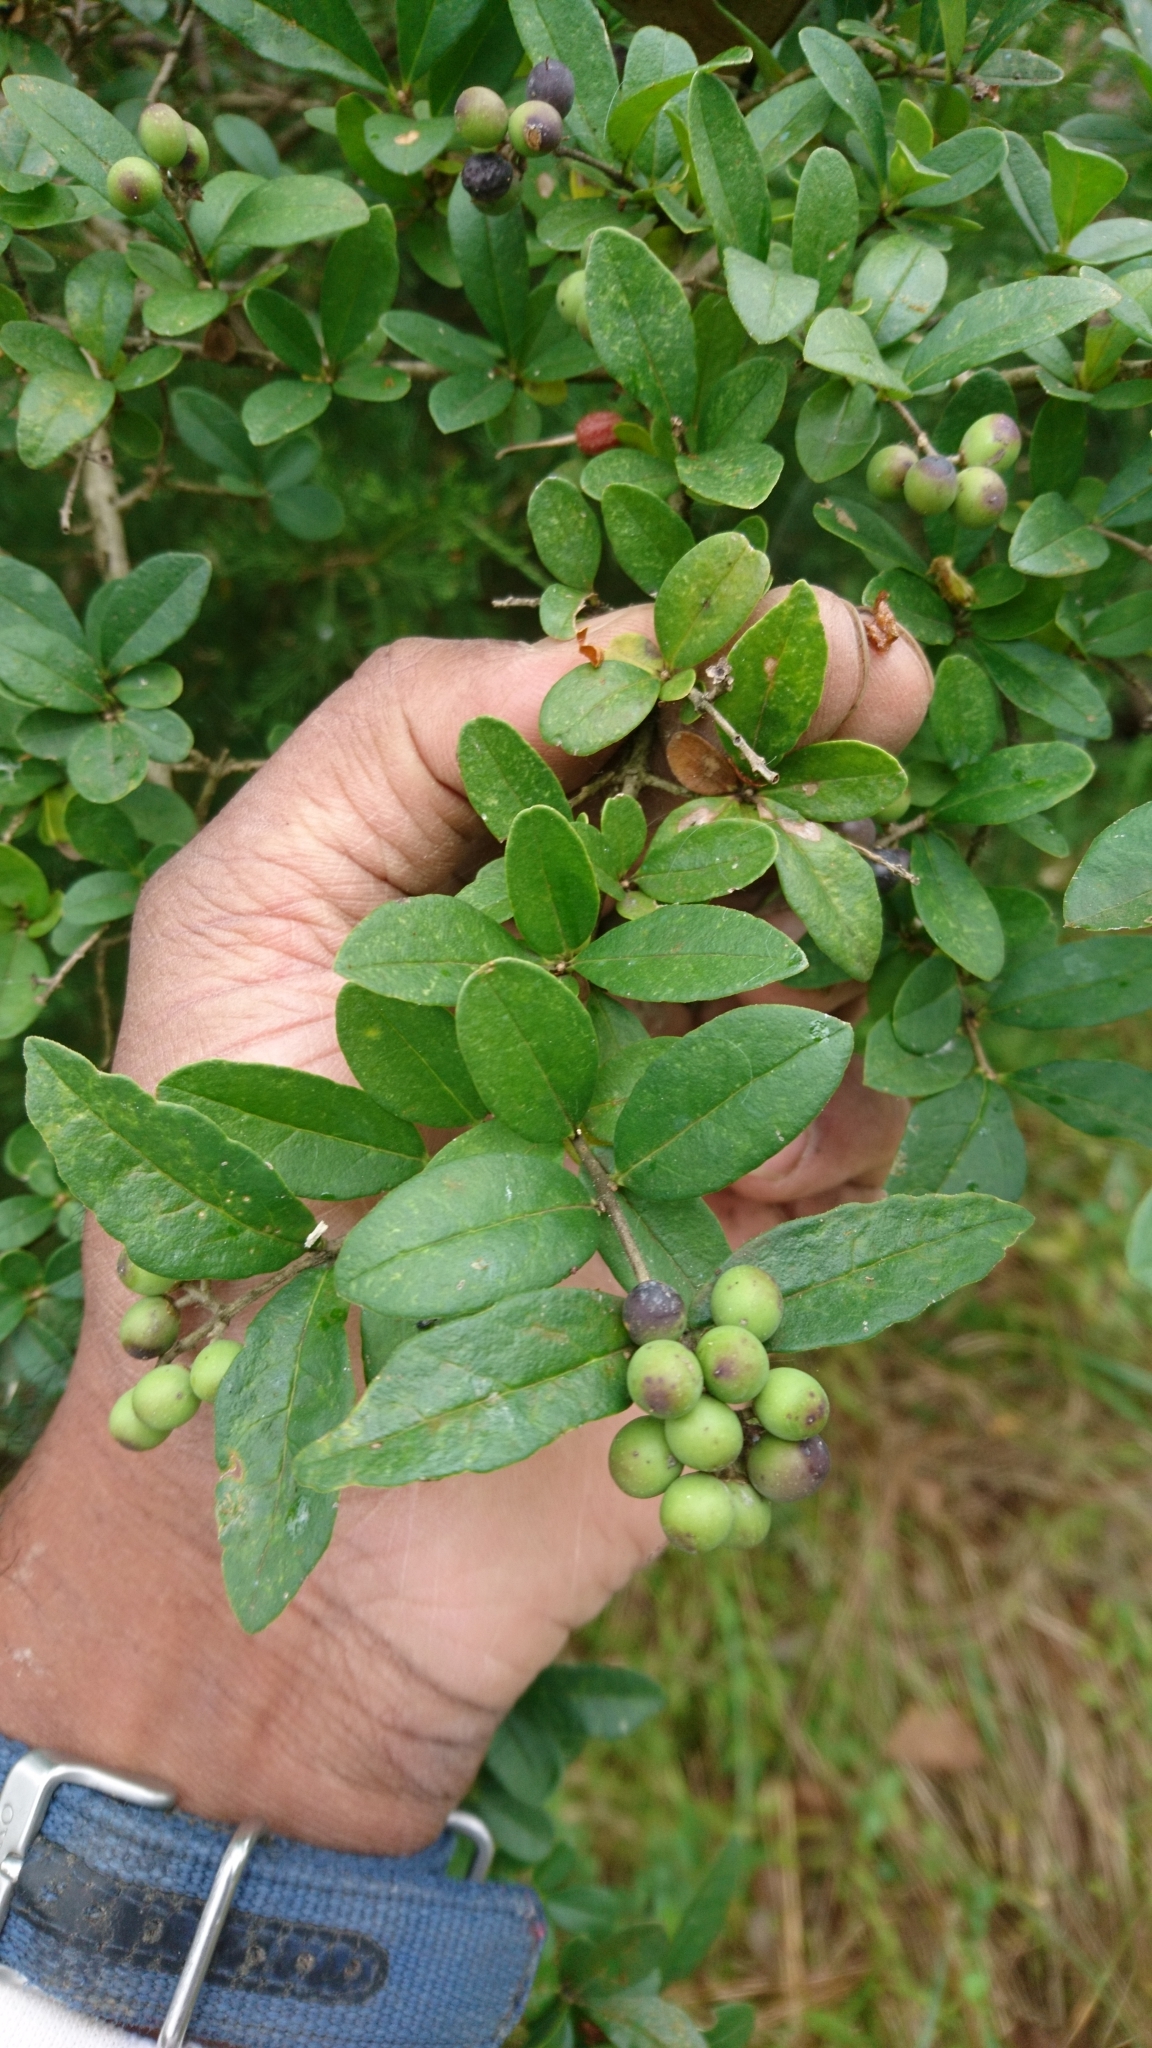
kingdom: Plantae
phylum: Tracheophyta
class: Magnoliopsida
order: Lamiales
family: Oleaceae
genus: Ligustrum
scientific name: Ligustrum obtusifolium
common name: Border privet
